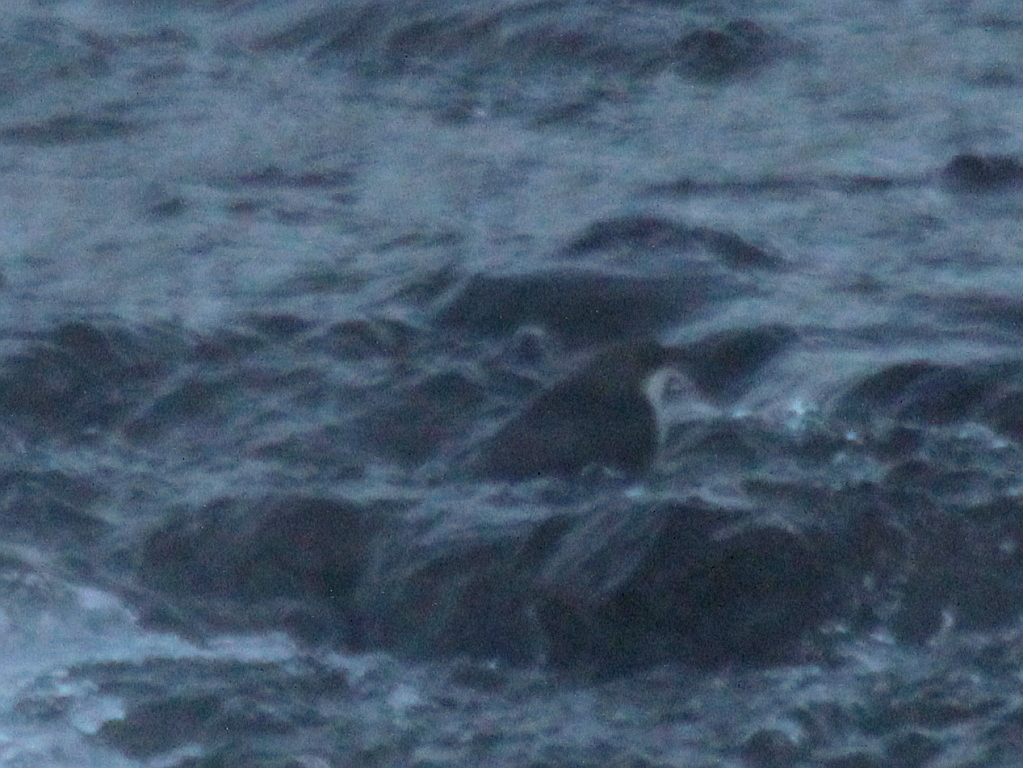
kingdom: Animalia
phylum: Chordata
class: Aves
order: Passeriformes
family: Cinclidae
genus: Cinclus
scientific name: Cinclus cinclus
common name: White-throated dipper
